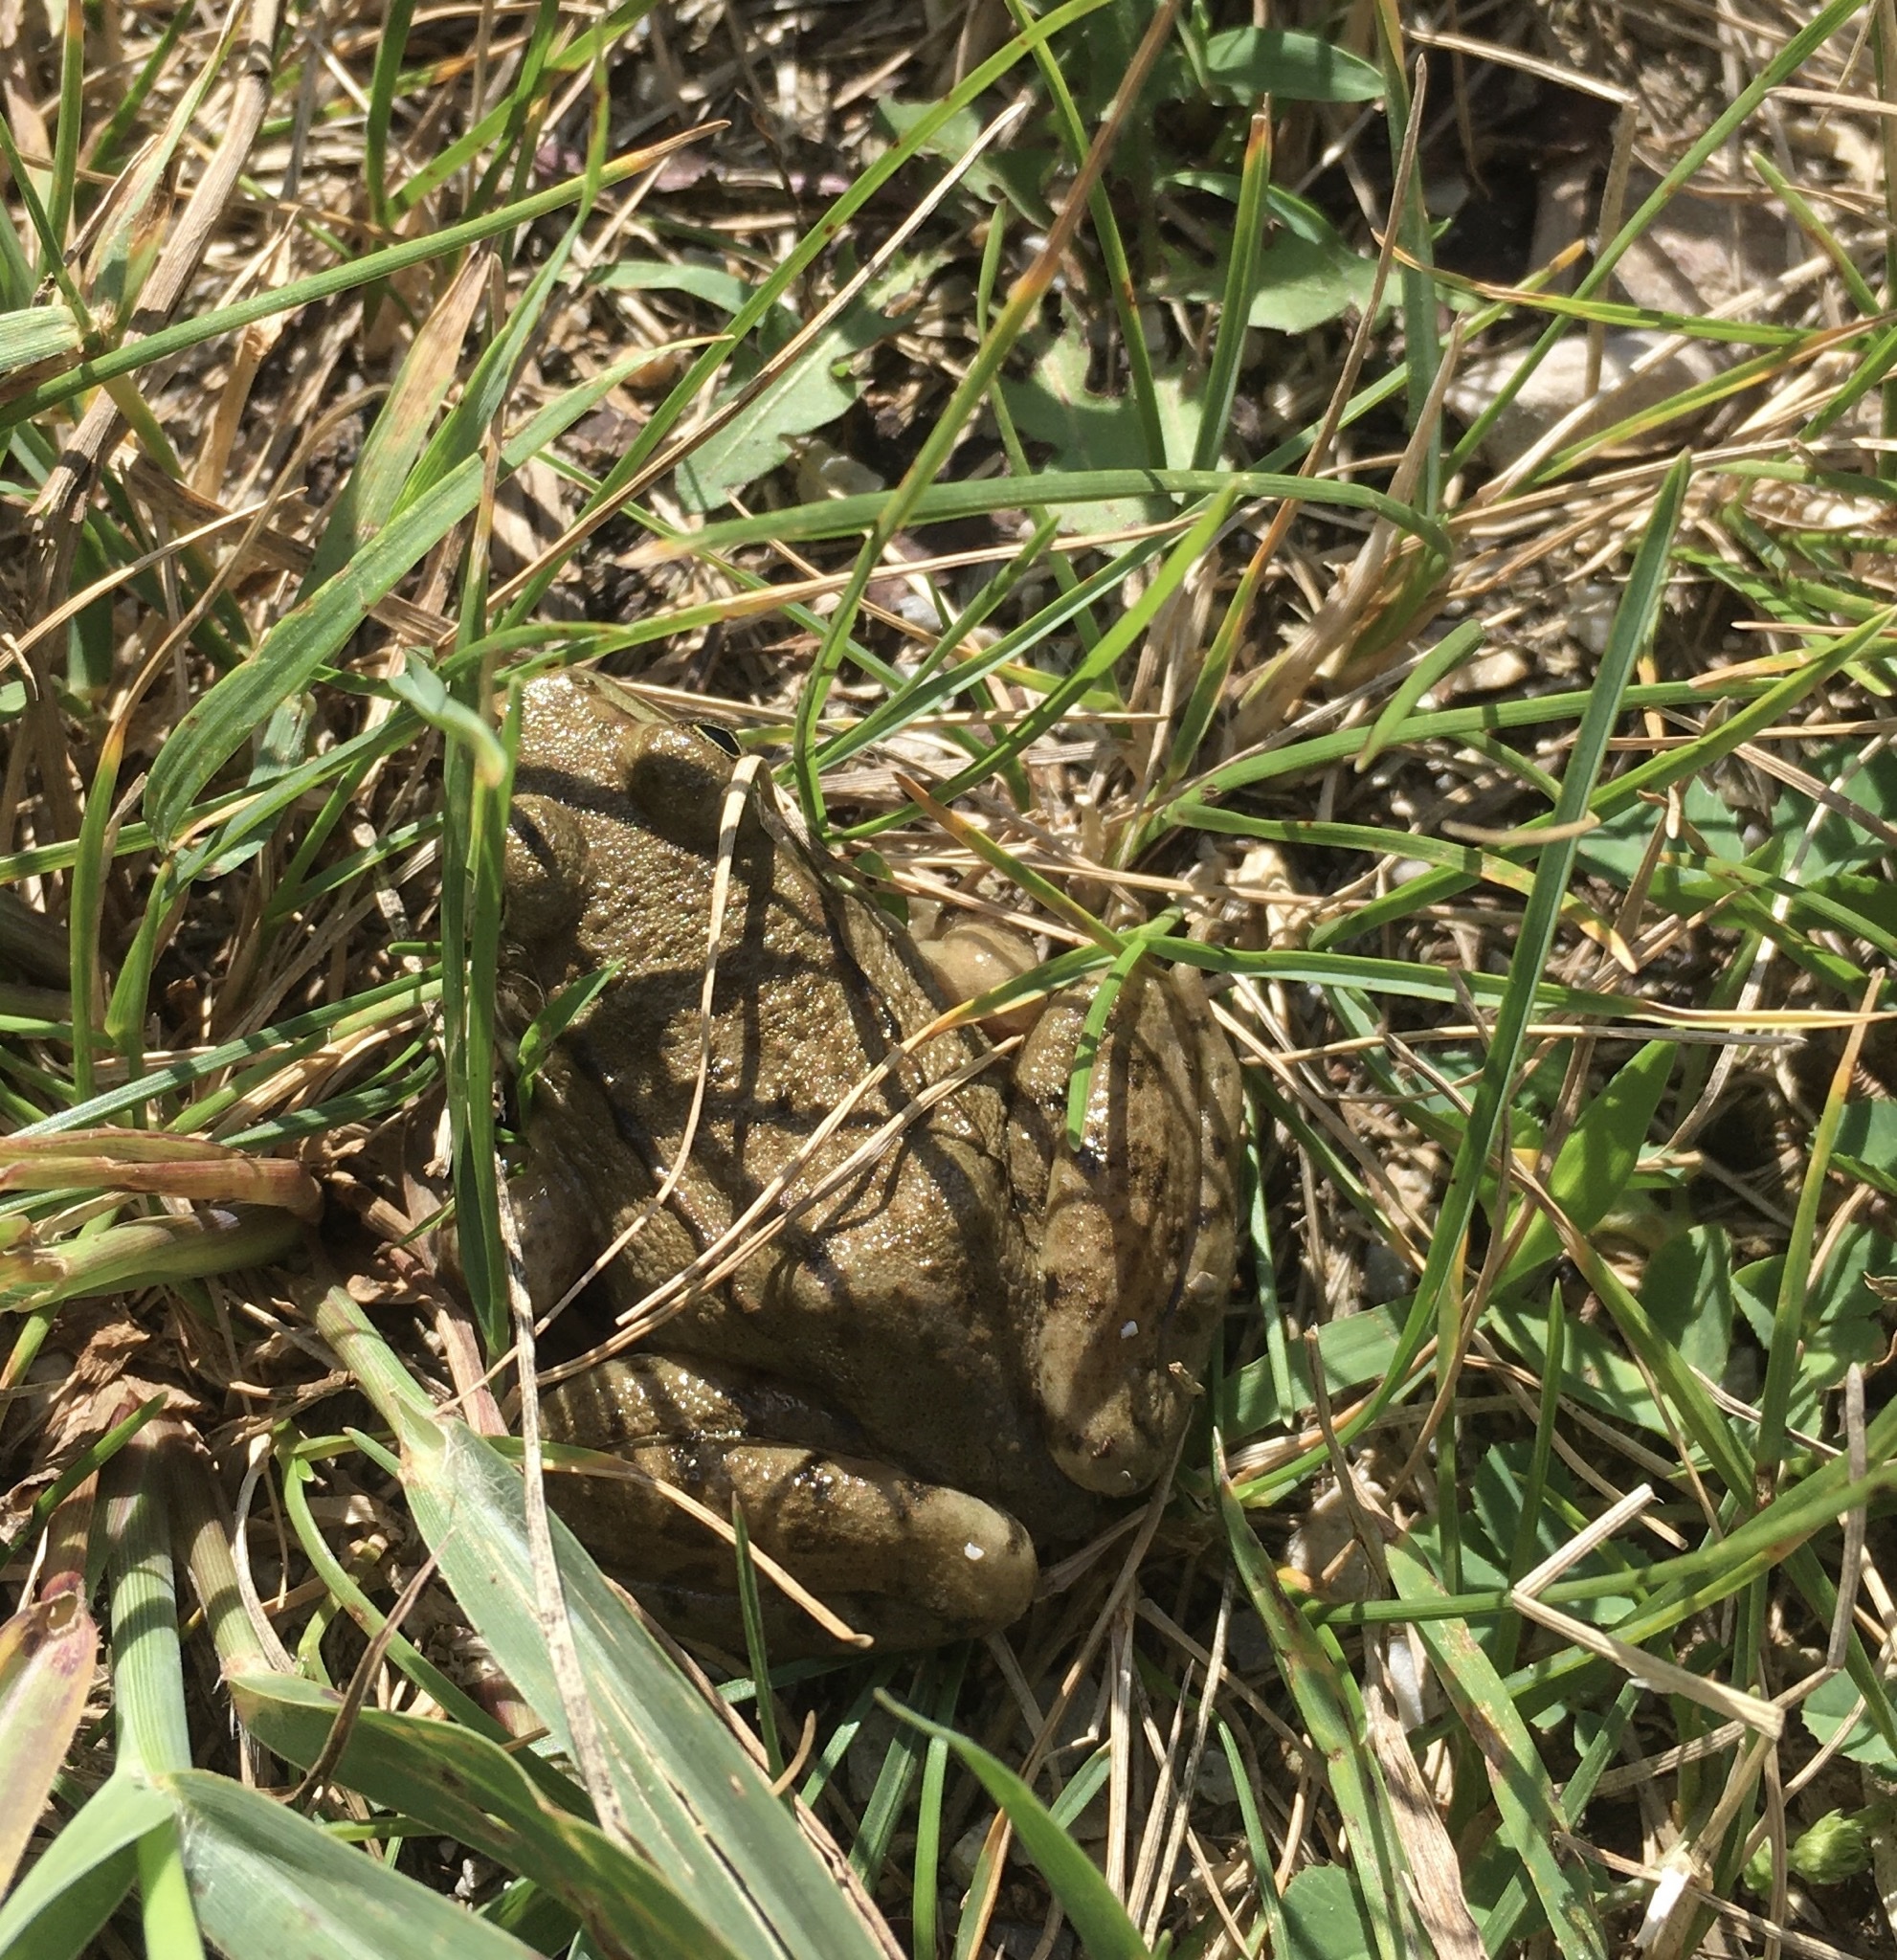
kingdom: Animalia
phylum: Chordata
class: Amphibia
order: Anura
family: Ranidae
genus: Lithobates
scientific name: Lithobates clamitans
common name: Green frog
